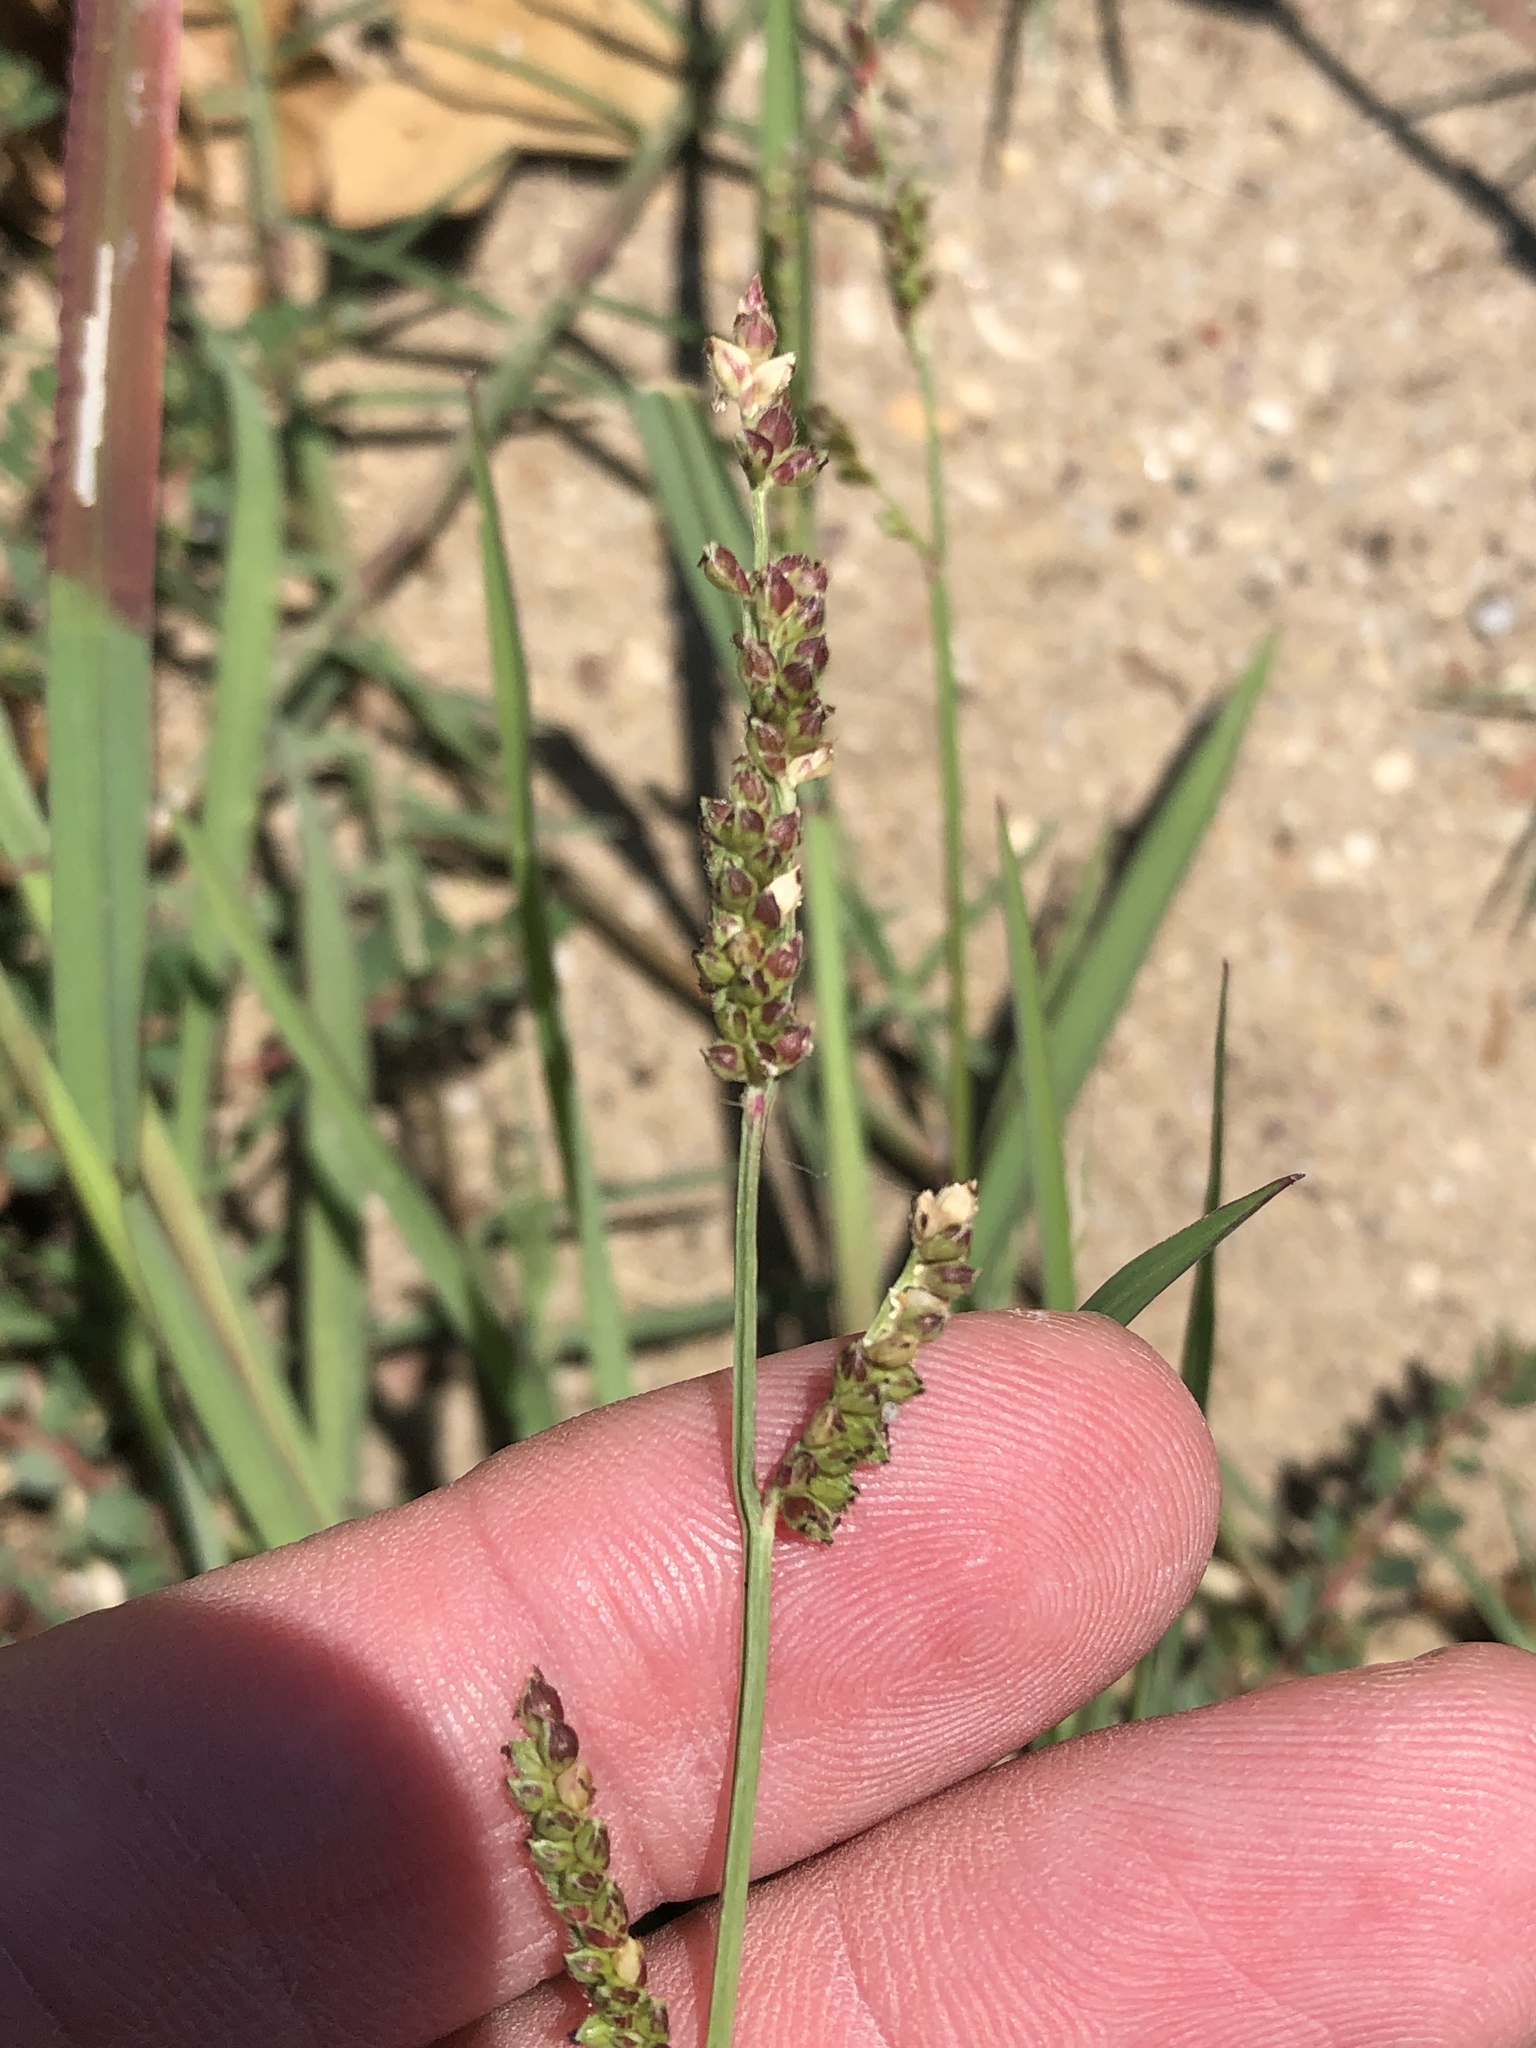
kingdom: Plantae
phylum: Tracheophyta
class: Liliopsida
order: Poales
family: Poaceae
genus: Echinochloa
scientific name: Echinochloa colonum
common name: Jungle rice
